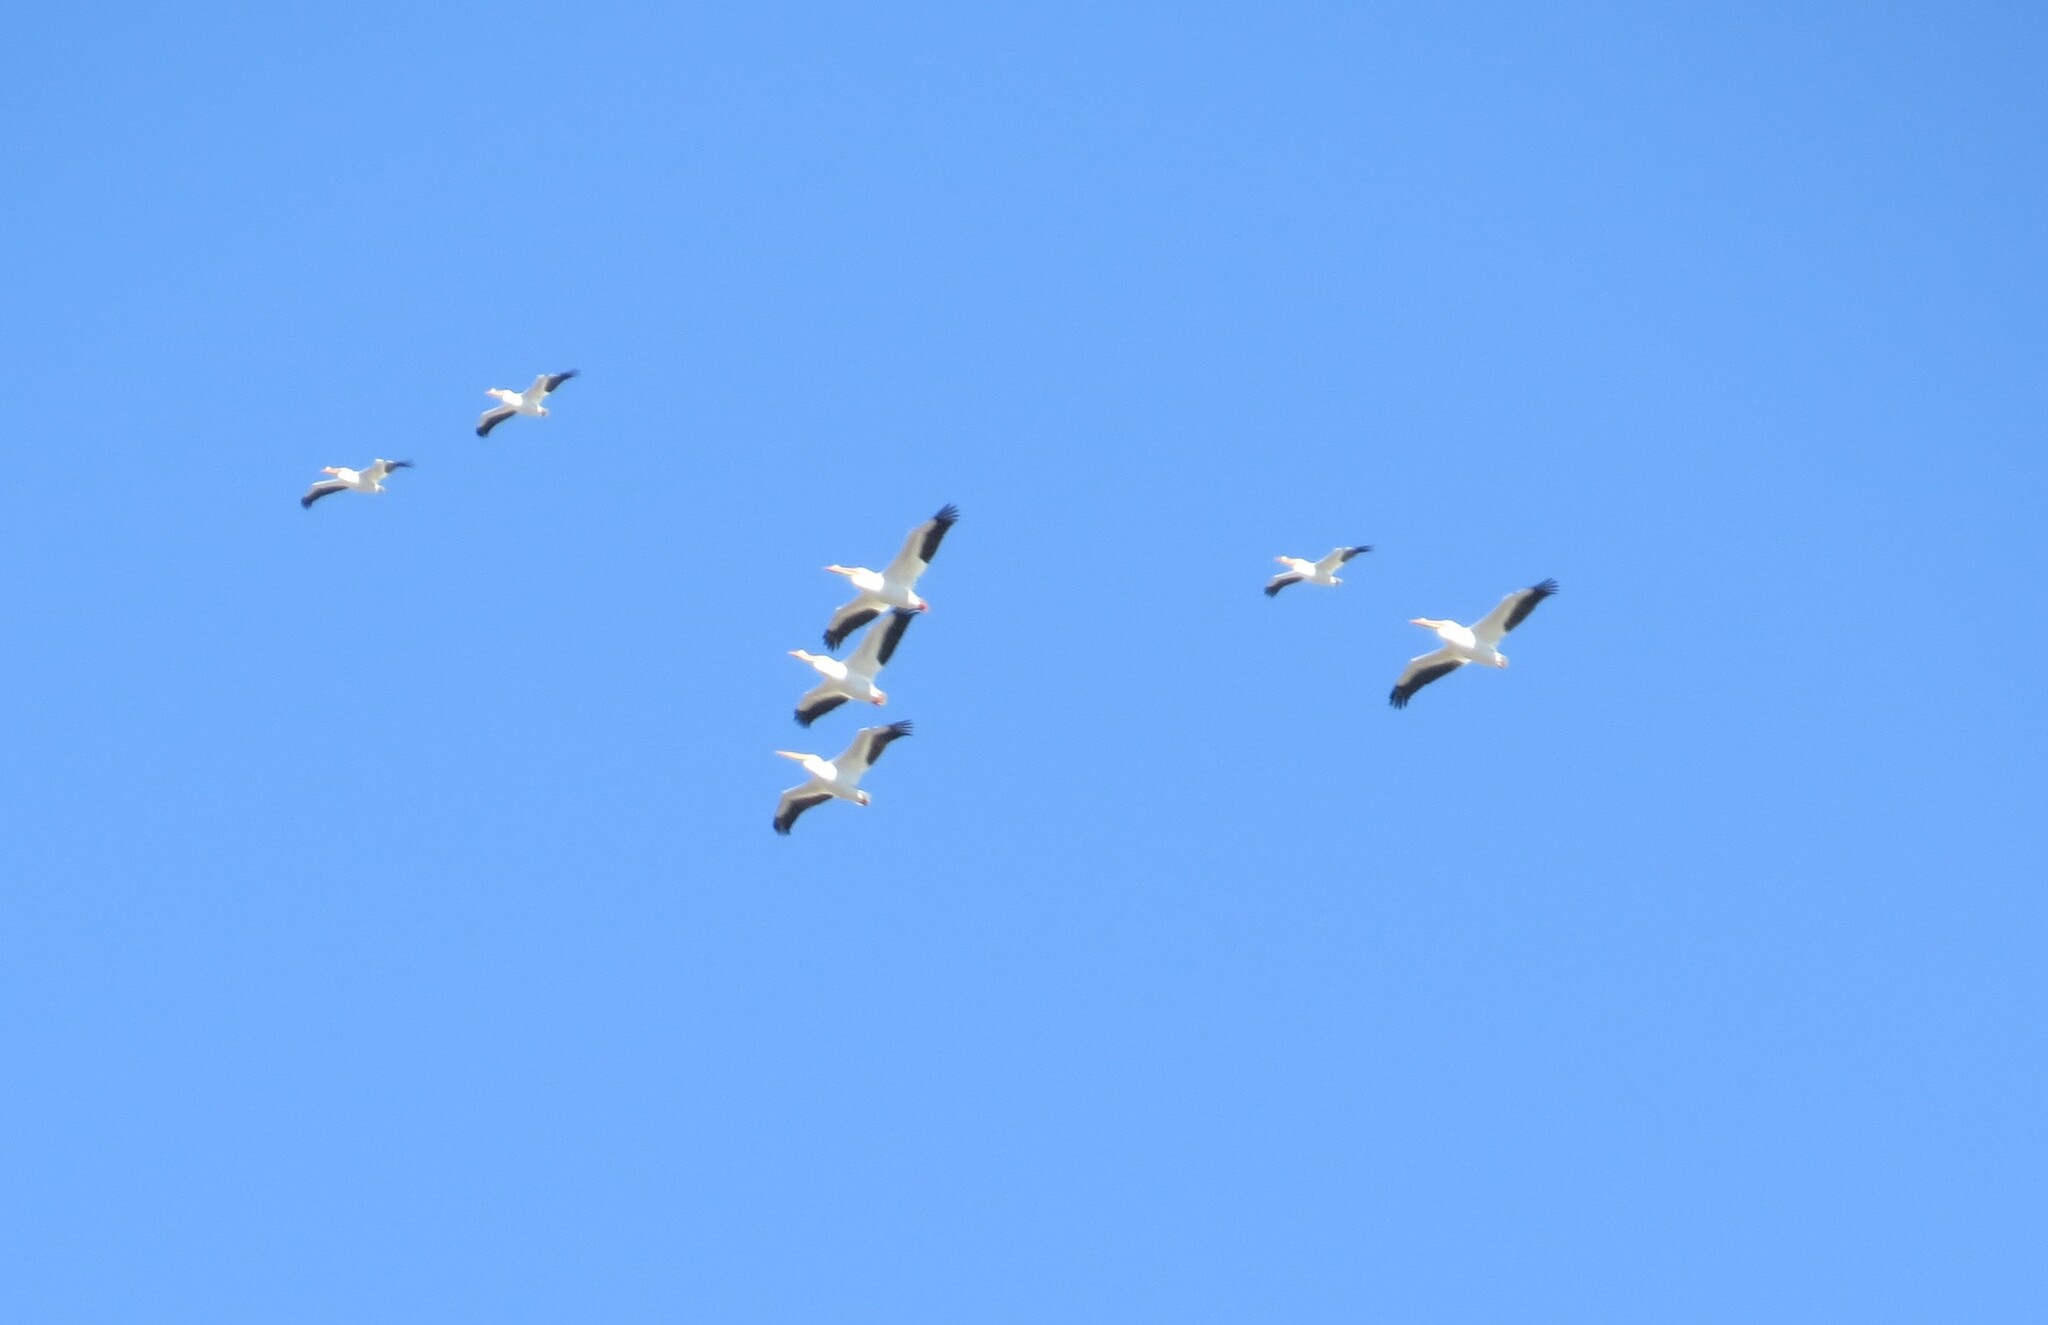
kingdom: Animalia
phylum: Chordata
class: Aves
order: Pelecaniformes
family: Pelecanidae
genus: Pelecanus
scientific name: Pelecanus erythrorhynchos
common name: American white pelican
